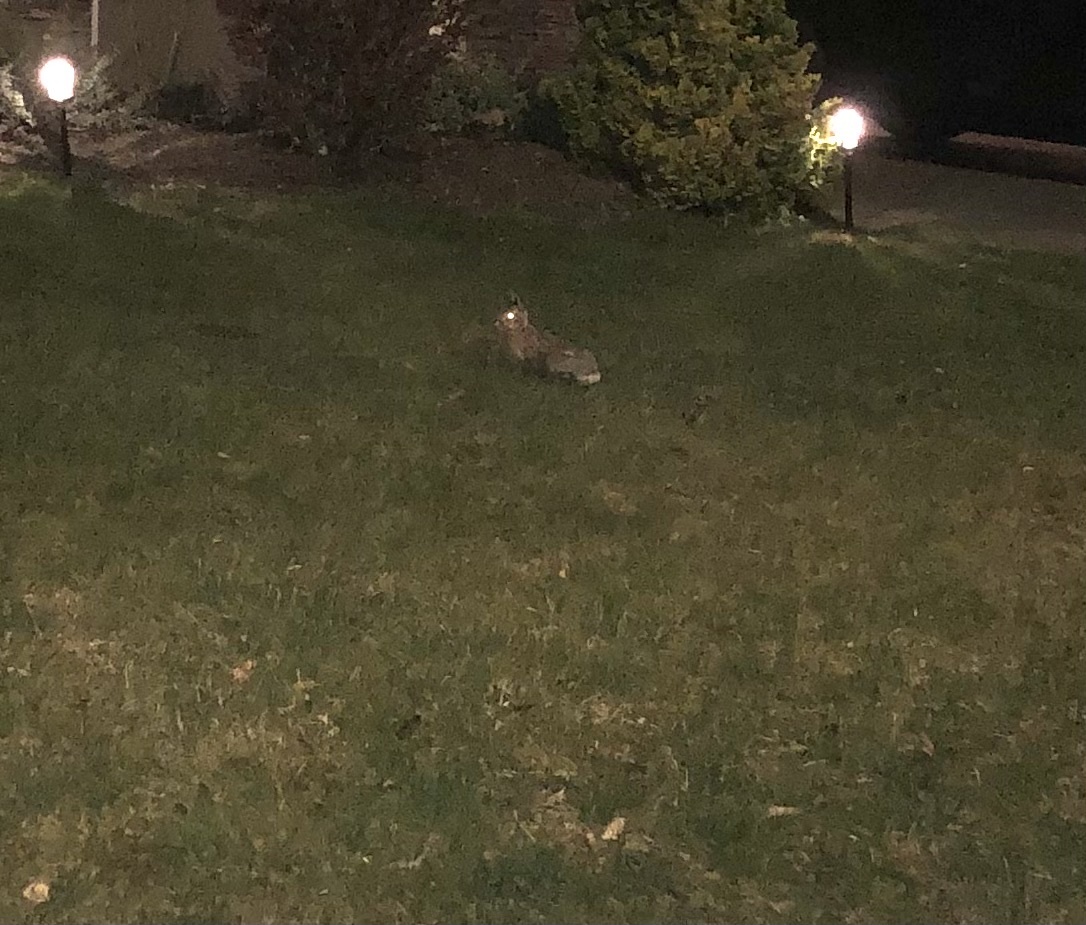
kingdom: Animalia
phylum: Chordata
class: Mammalia
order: Lagomorpha
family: Leporidae
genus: Sylvilagus
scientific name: Sylvilagus floridanus
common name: Eastern cottontail
